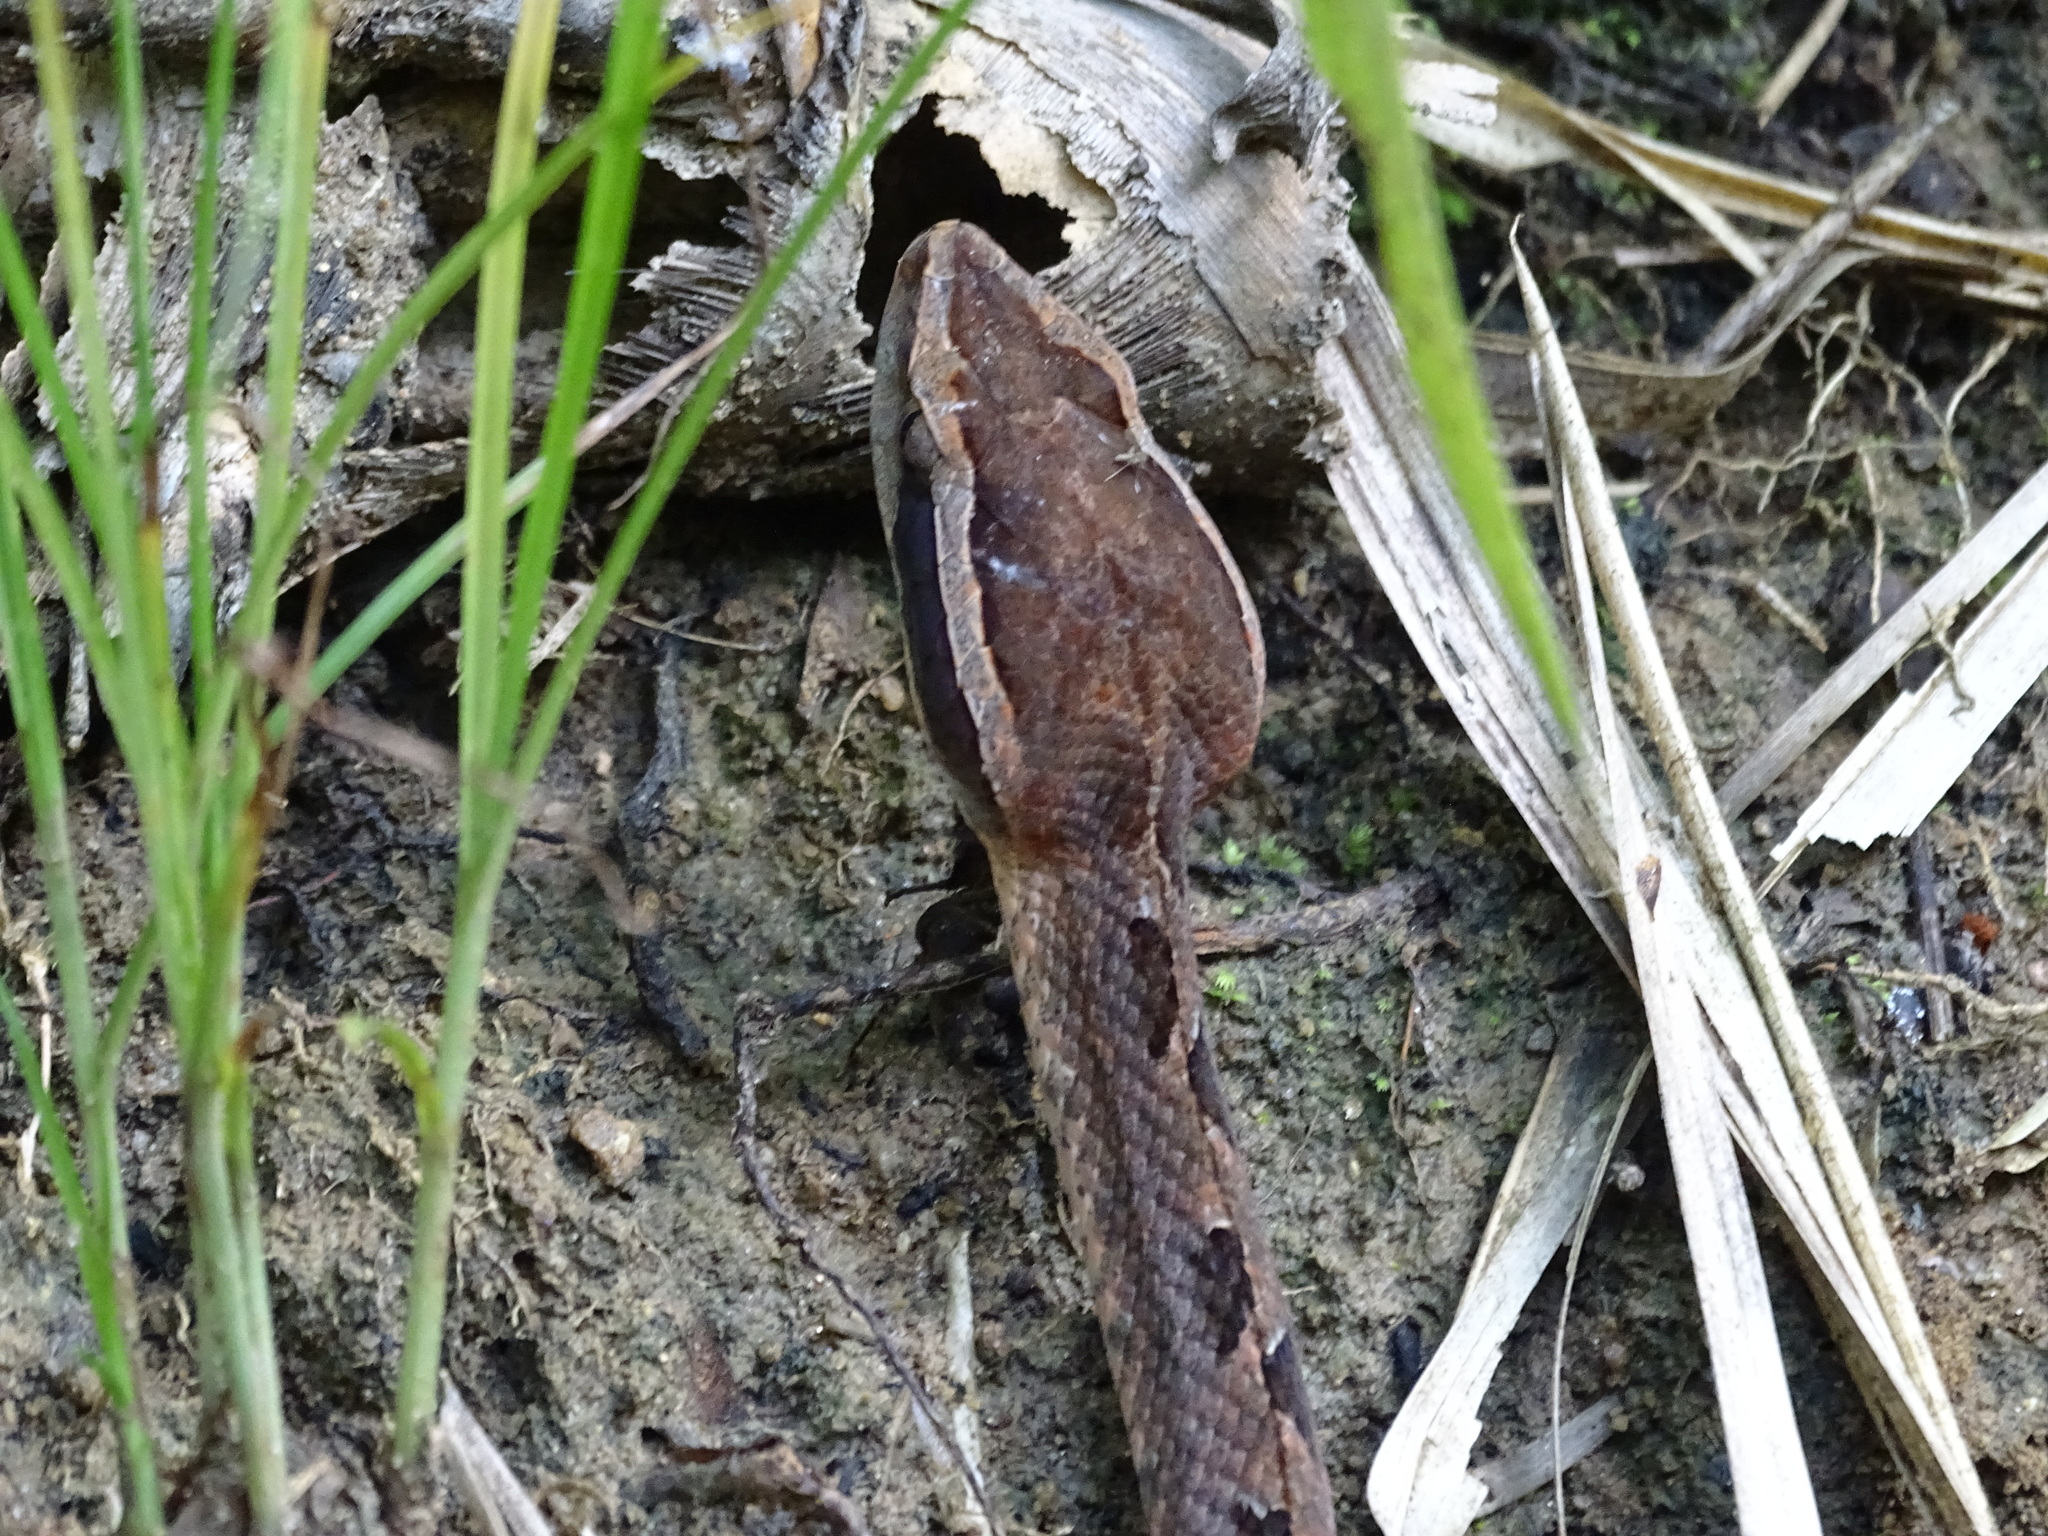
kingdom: Animalia
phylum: Chordata
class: Squamata
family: Viperidae
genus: Calloselasma
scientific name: Calloselasma rhodostoma
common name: Malayan pit viper
